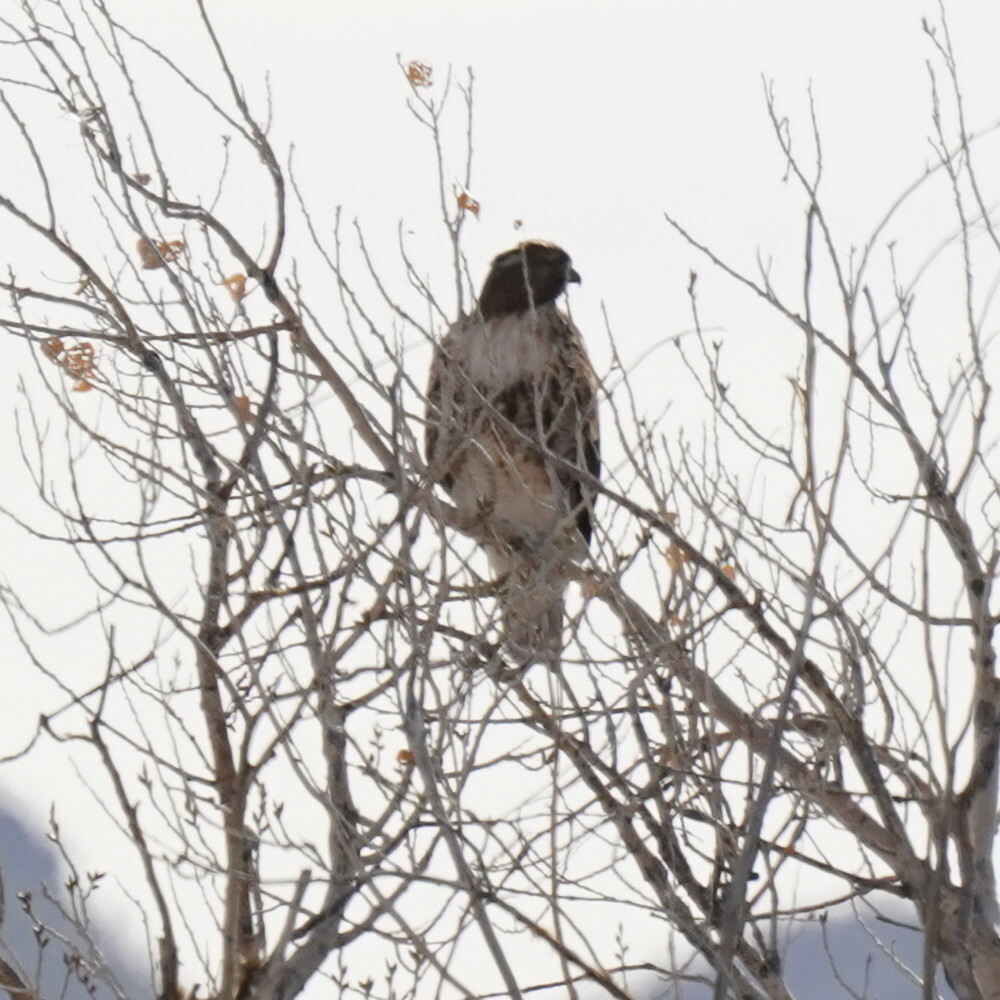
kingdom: Animalia
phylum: Chordata
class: Aves
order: Accipitriformes
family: Accipitridae
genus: Buteo
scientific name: Buteo jamaicensis
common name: Red-tailed hawk
